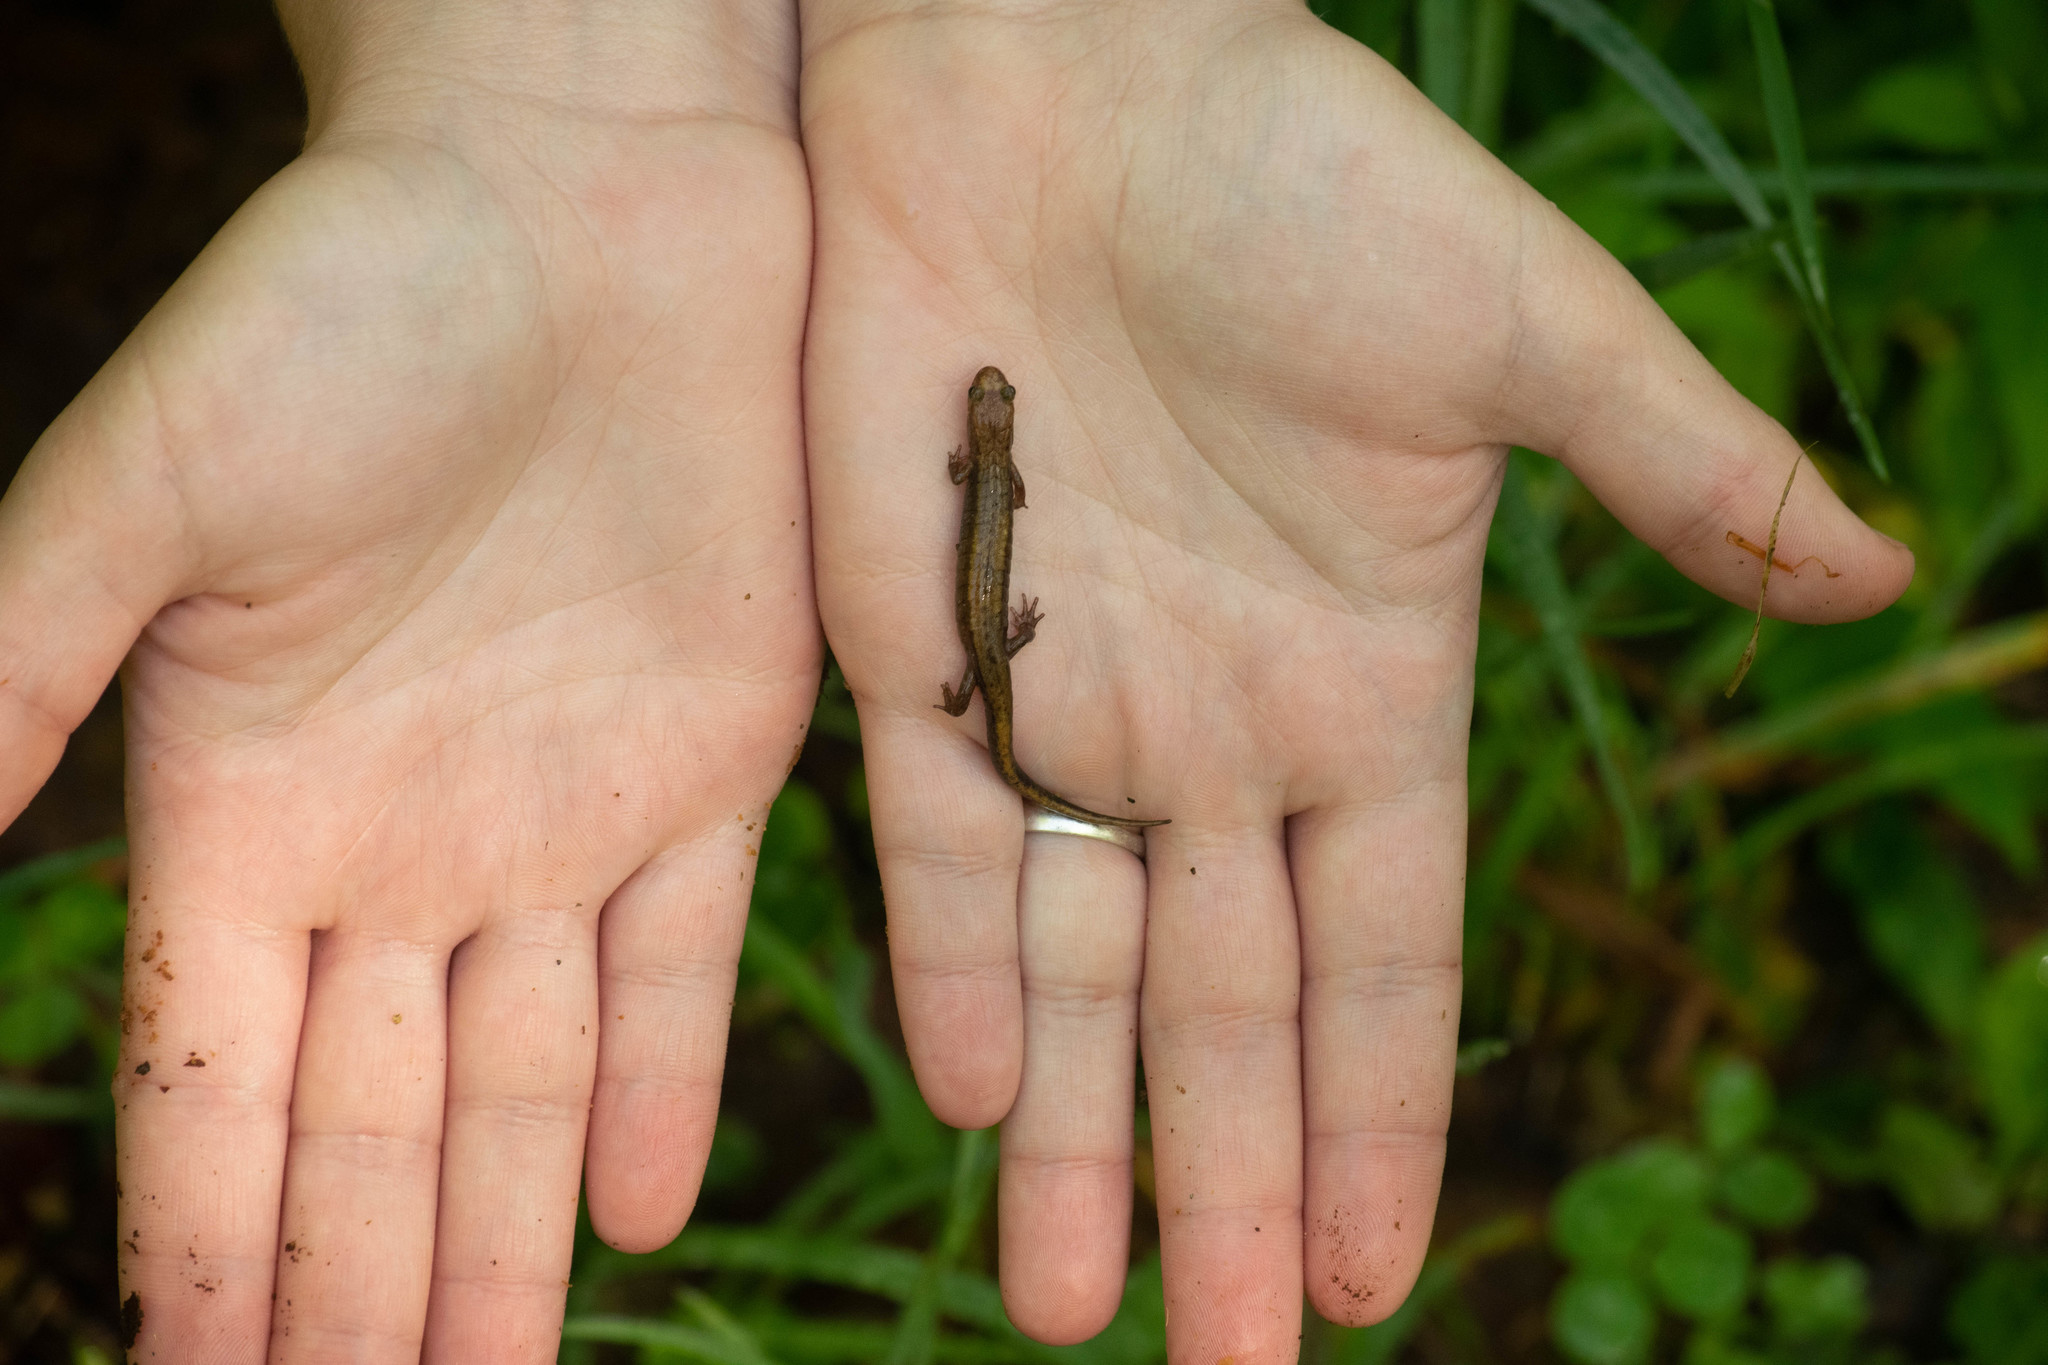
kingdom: Animalia
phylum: Chordata
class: Amphibia
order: Caudata
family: Plethodontidae
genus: Desmognathus
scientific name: Desmognathus ochrophaeus
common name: Allegheny mountain dusky salamander
